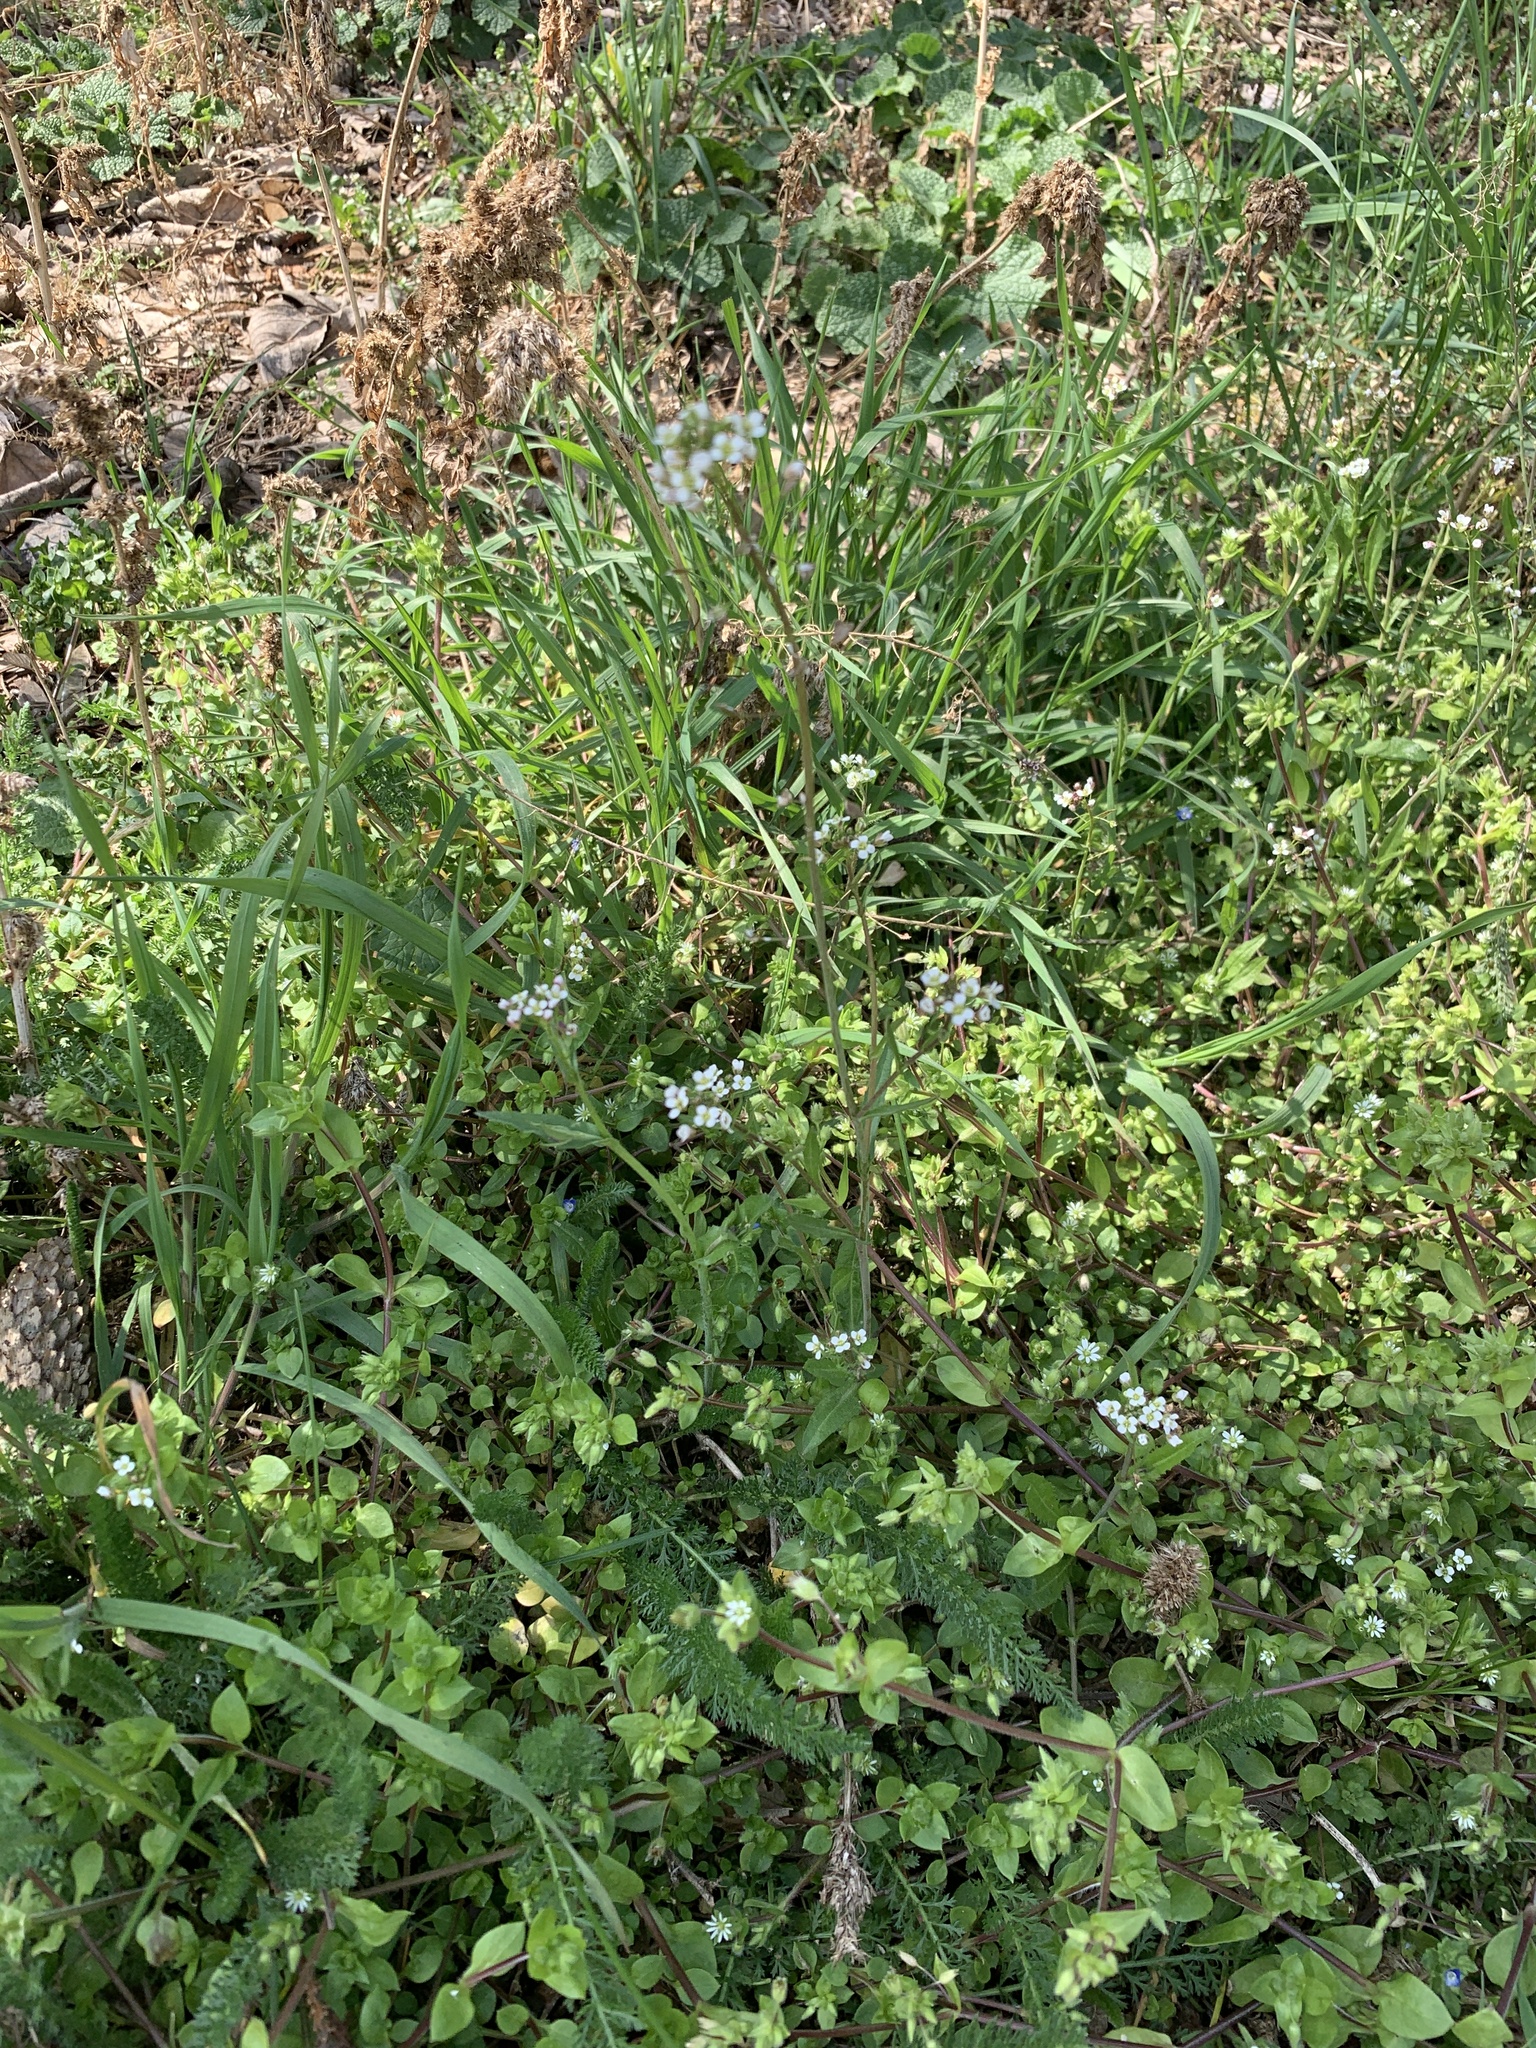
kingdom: Plantae
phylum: Tracheophyta
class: Magnoliopsida
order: Brassicales
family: Brassicaceae
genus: Capsella
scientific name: Capsella bursa-pastoris
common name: Shepherd's purse
